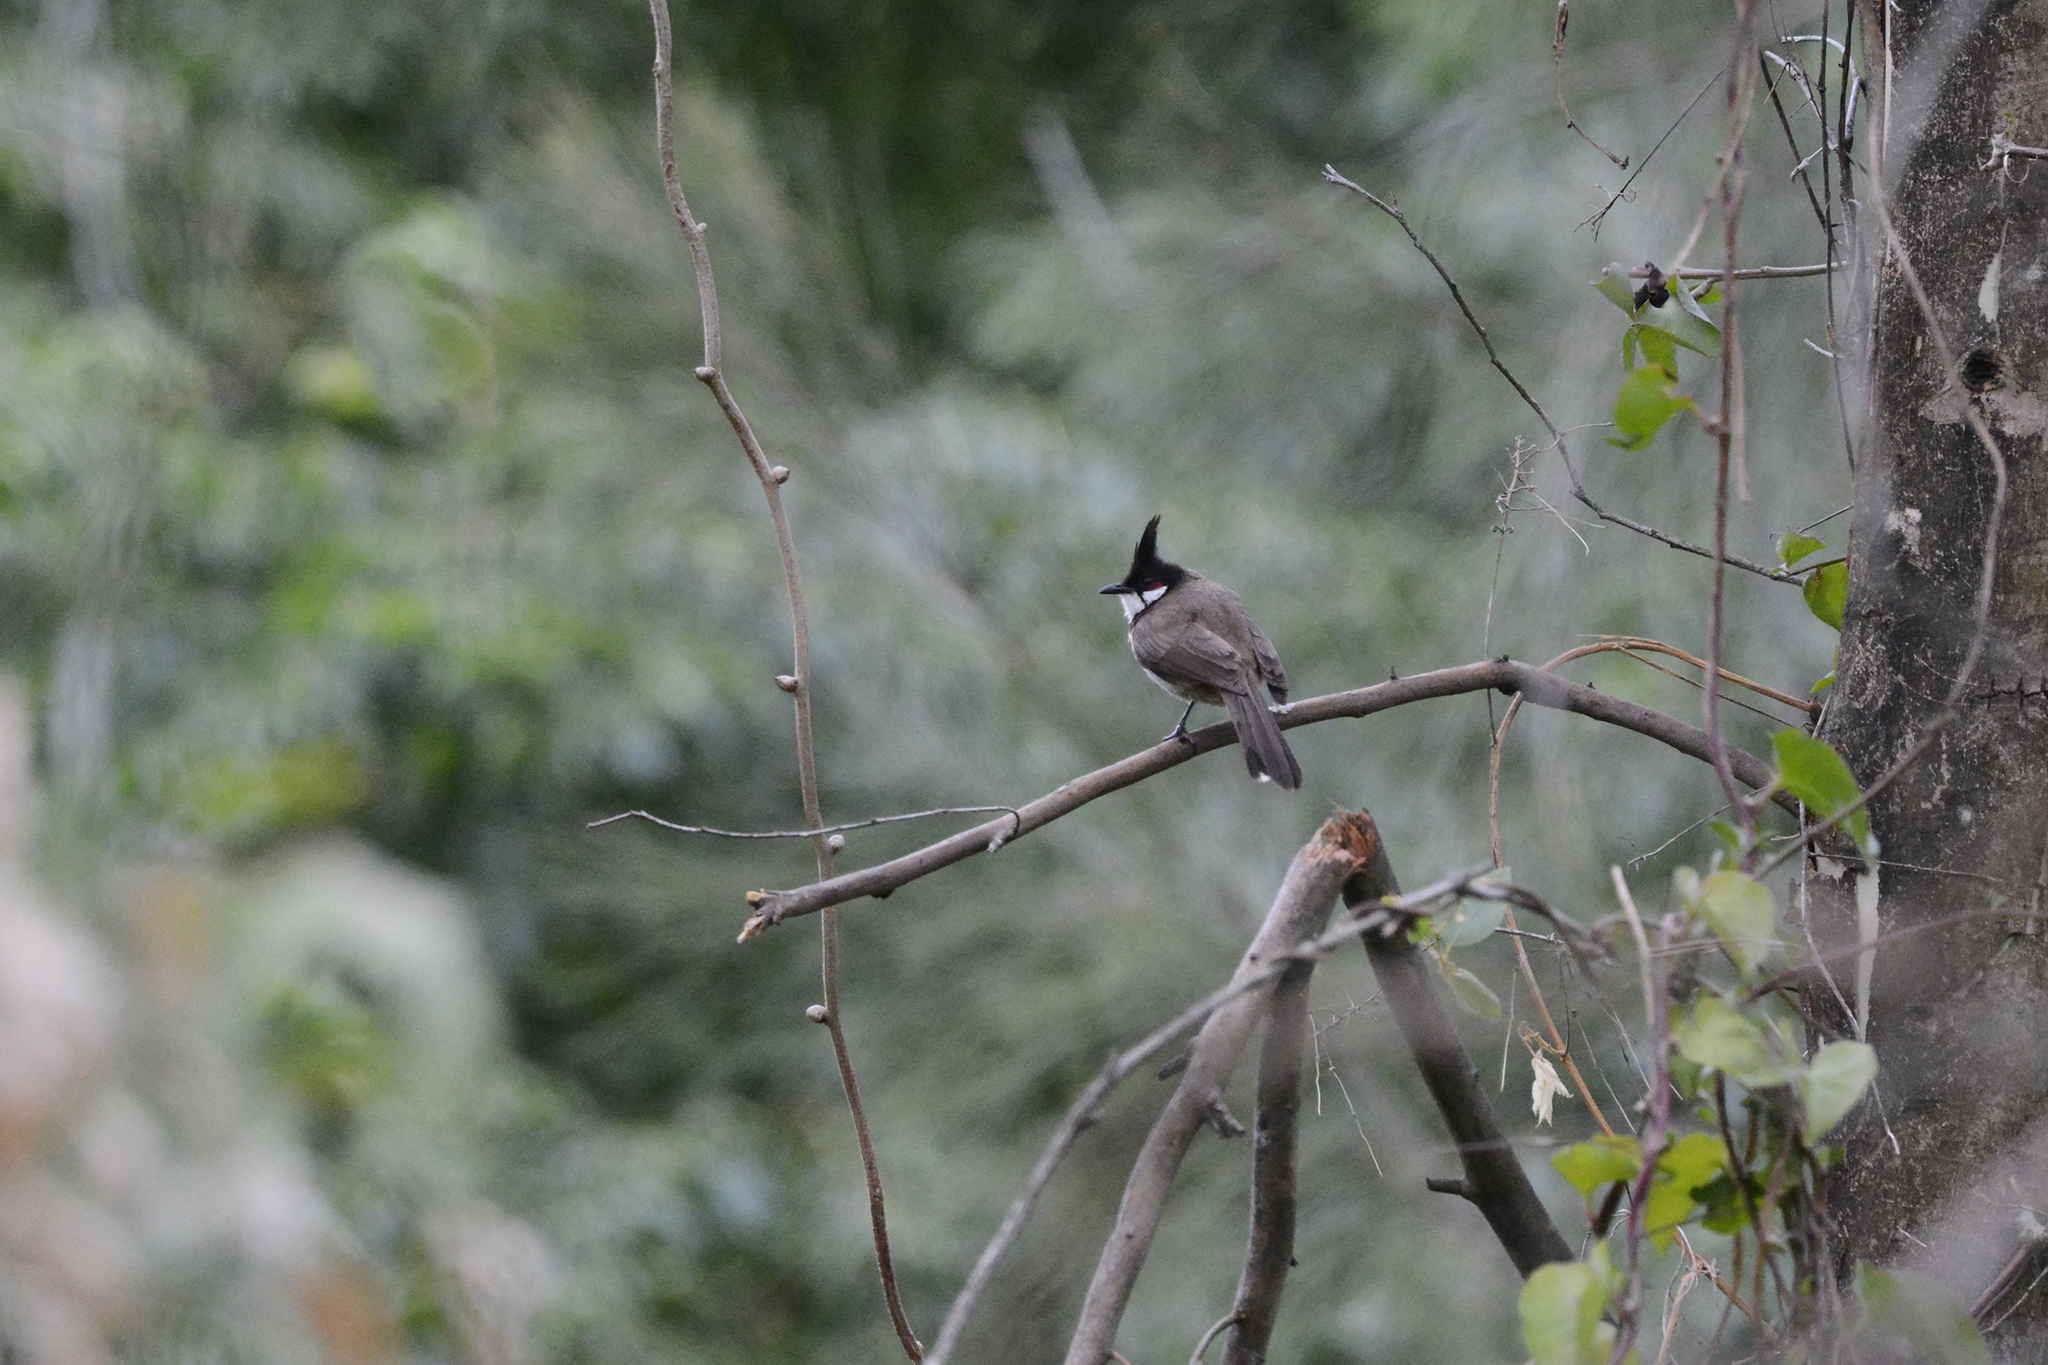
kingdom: Animalia
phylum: Chordata
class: Aves
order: Passeriformes
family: Pycnonotidae
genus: Pycnonotus
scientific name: Pycnonotus jocosus
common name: Red-whiskered bulbul
